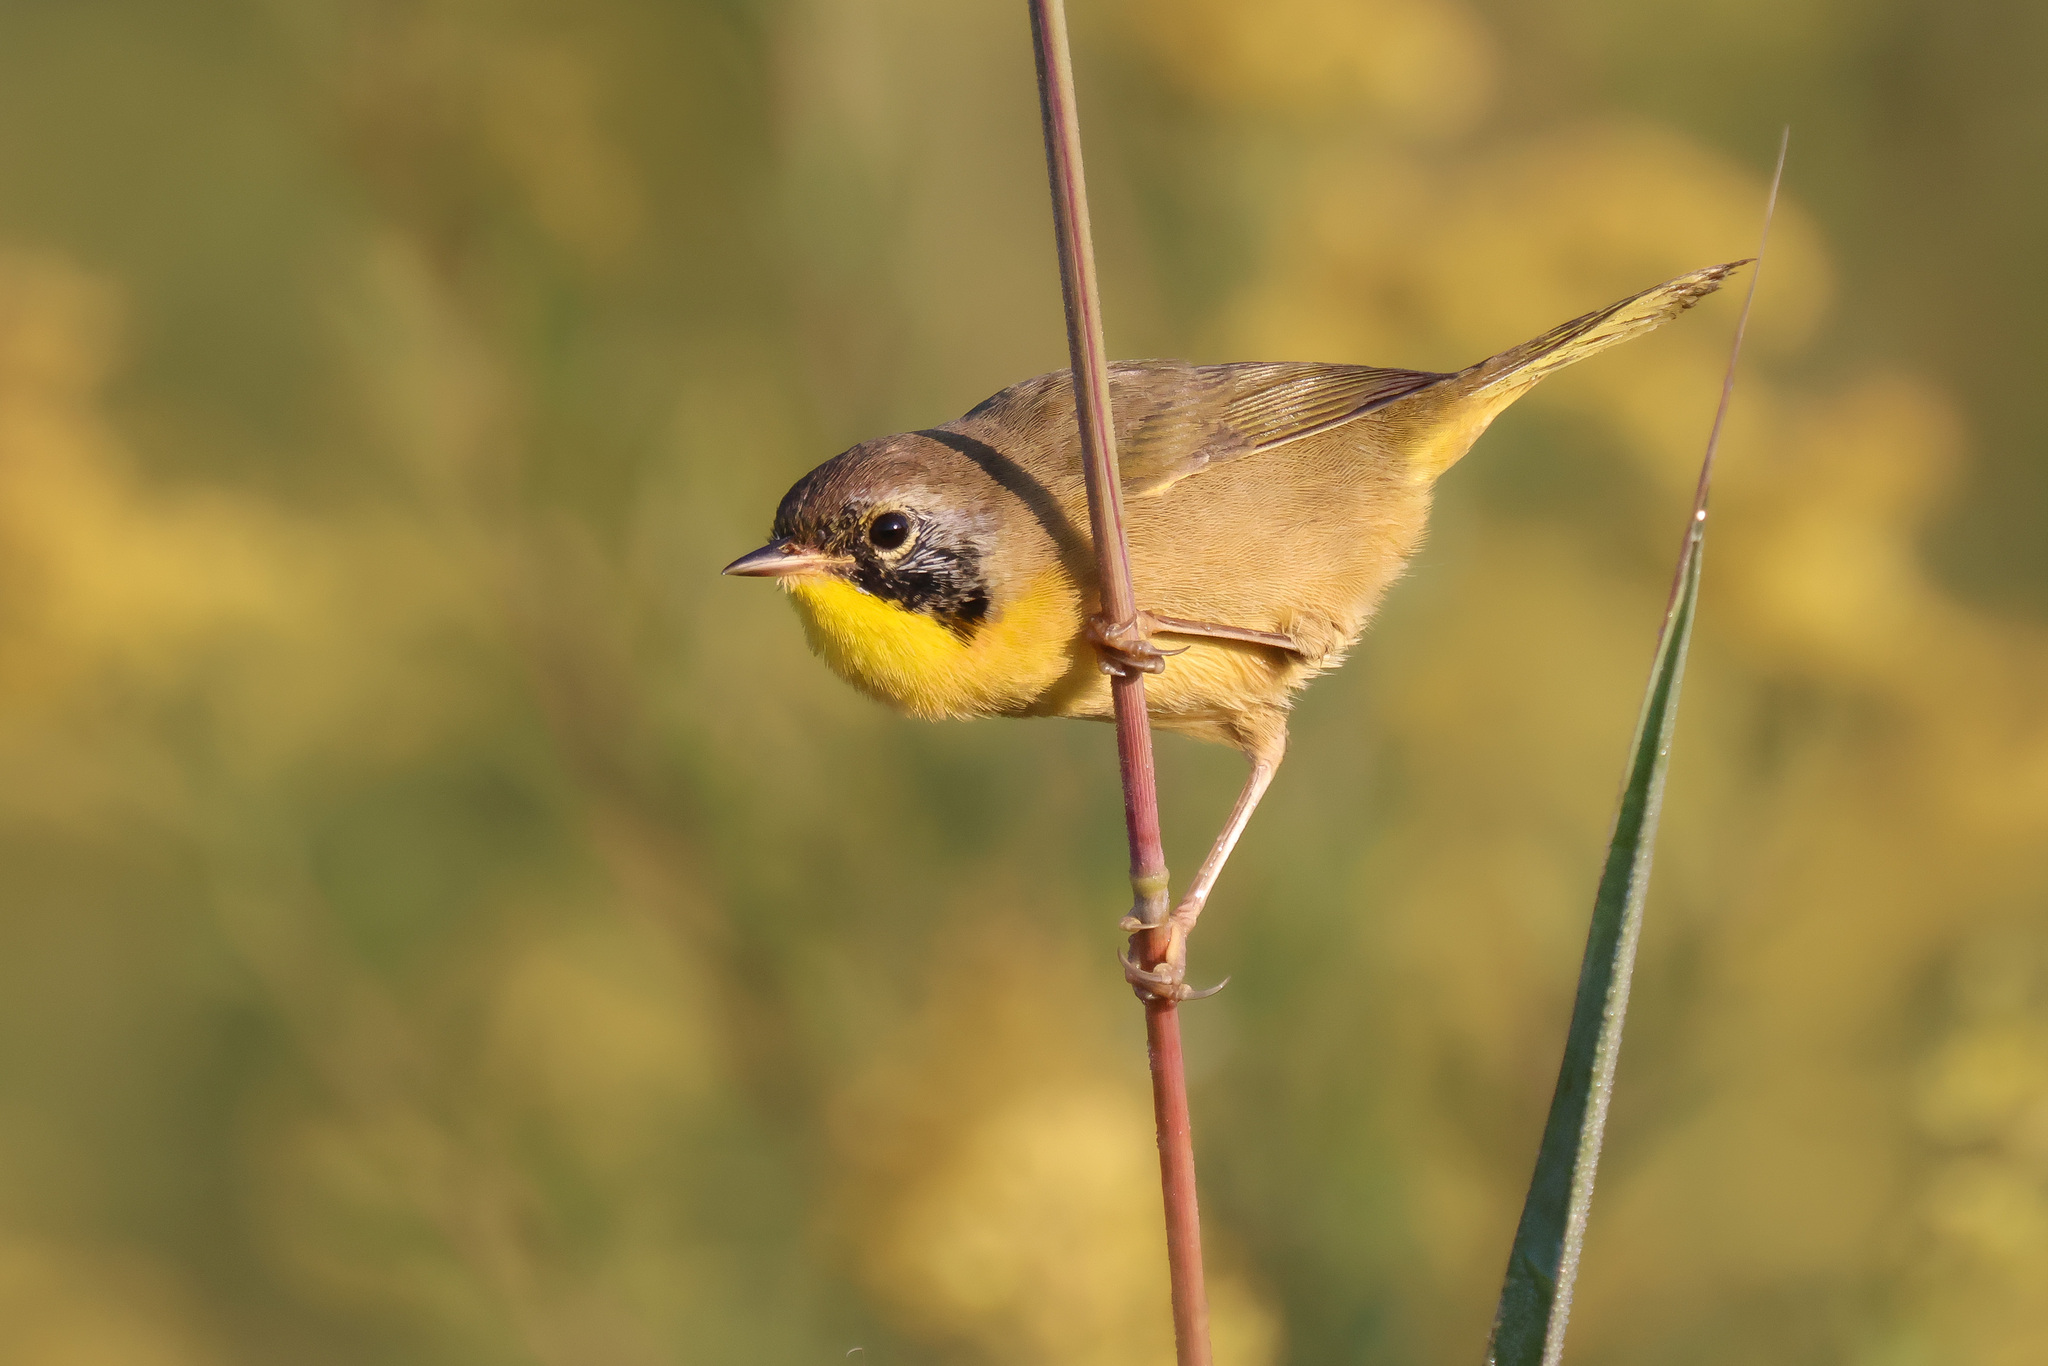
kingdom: Animalia
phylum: Chordata
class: Aves
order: Passeriformes
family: Parulidae
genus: Geothlypis
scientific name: Geothlypis trichas
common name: Common yellowthroat
